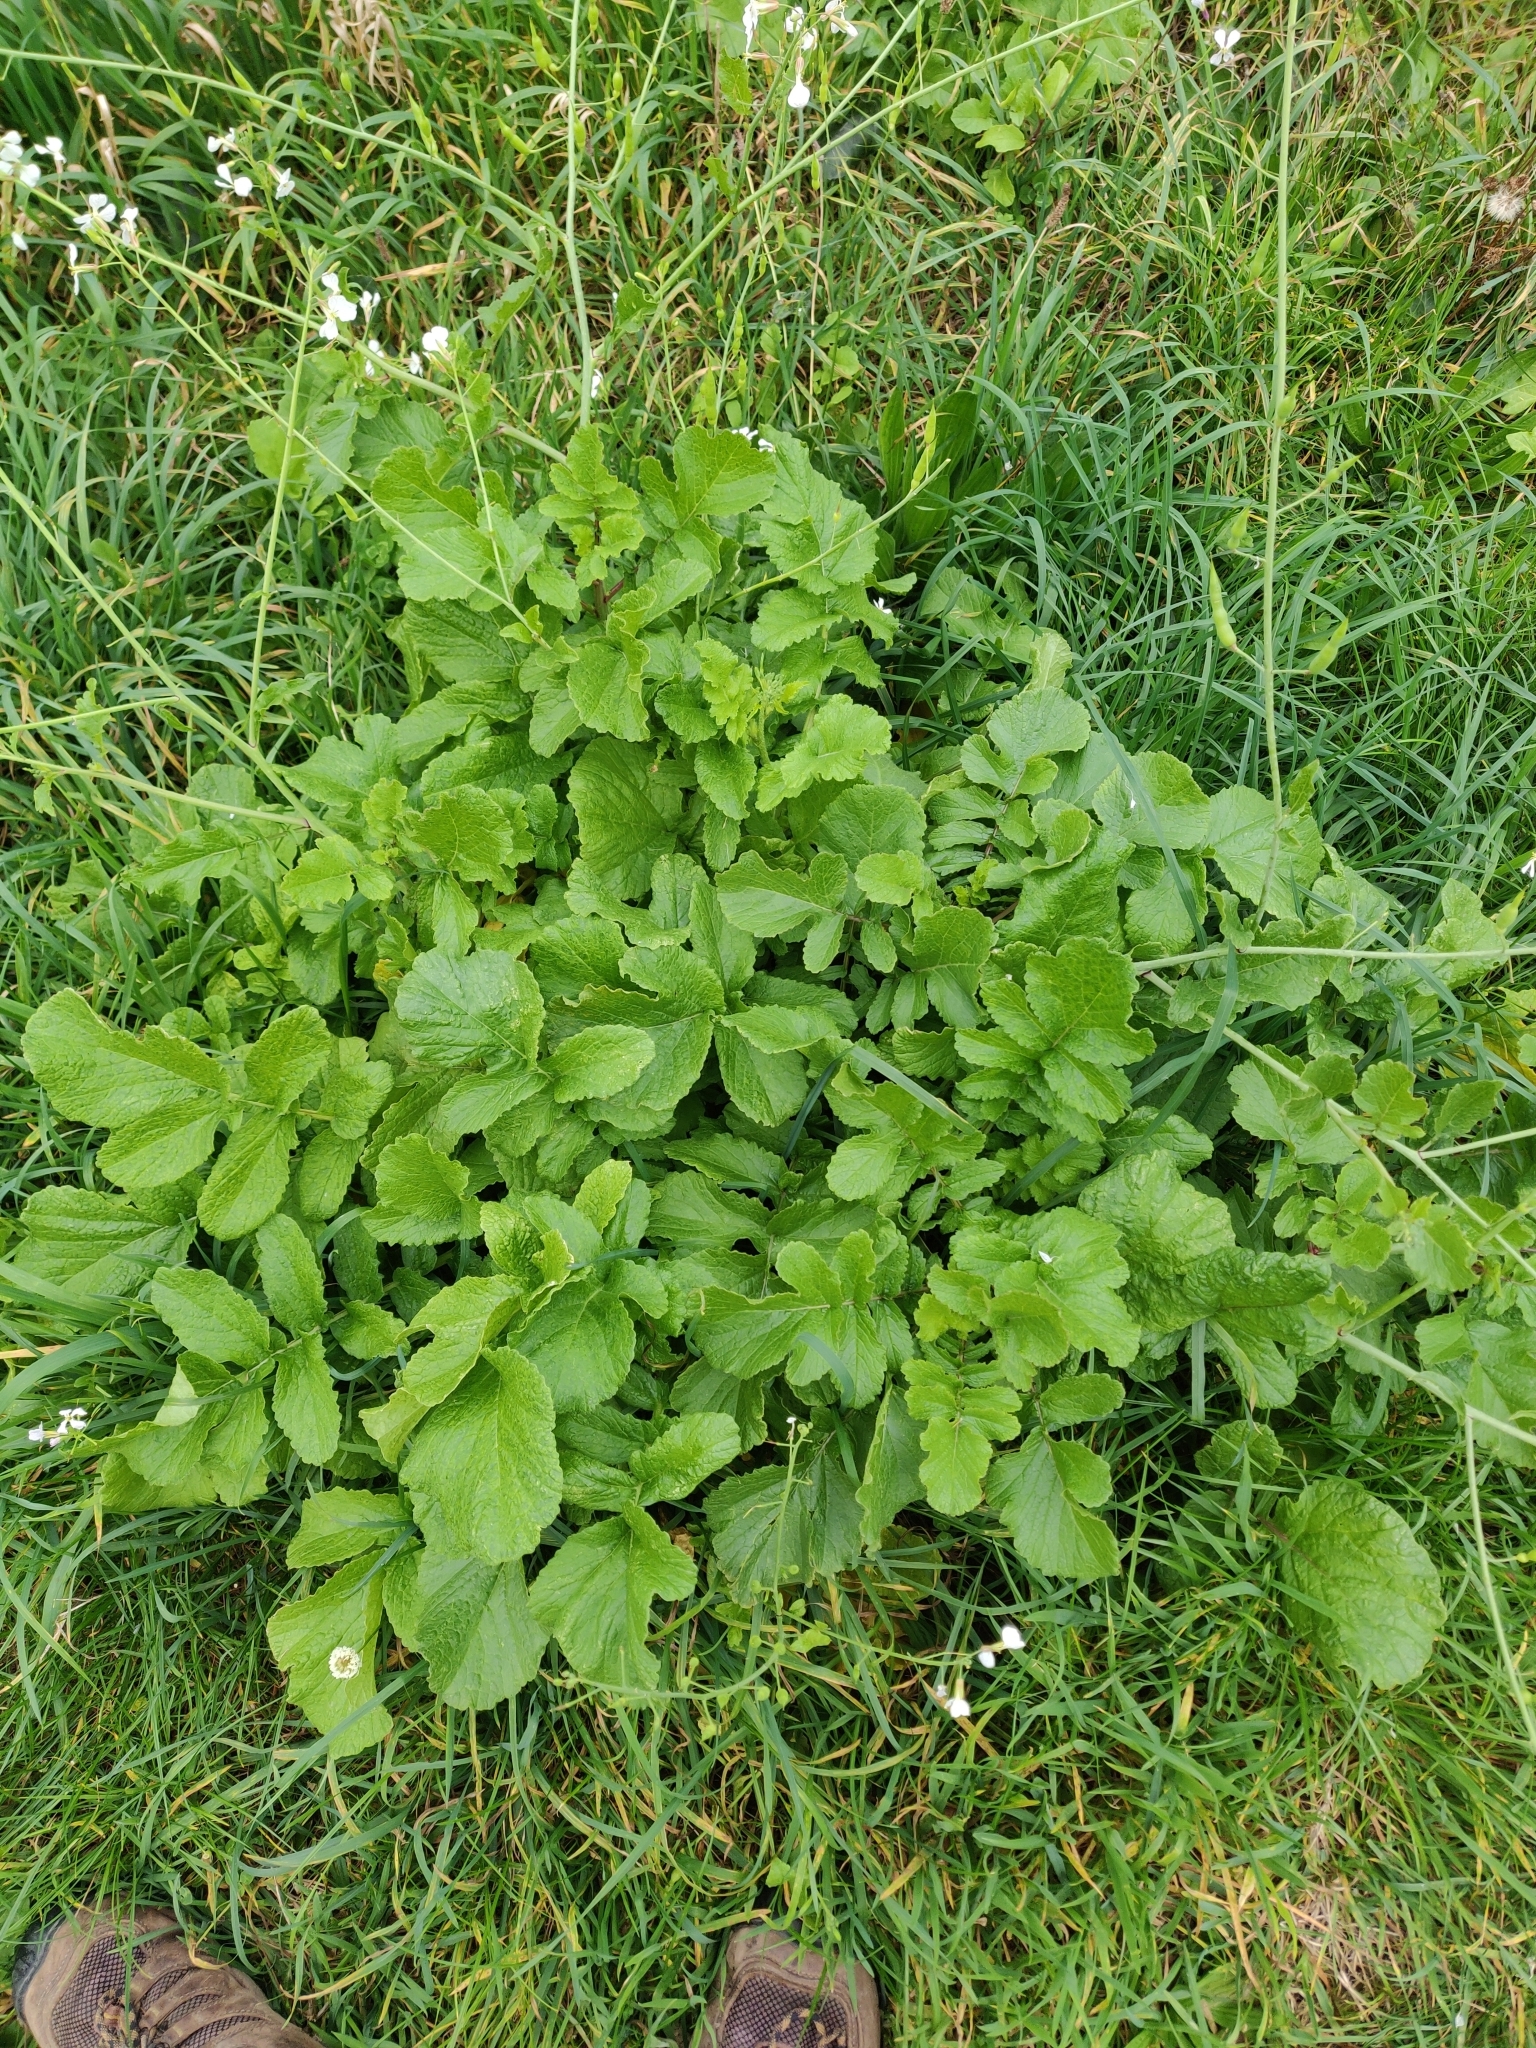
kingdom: Plantae
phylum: Tracheophyta
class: Magnoliopsida
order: Brassicales
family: Brassicaceae
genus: Raphanus
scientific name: Raphanus raphanistrum
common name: Wild radish
